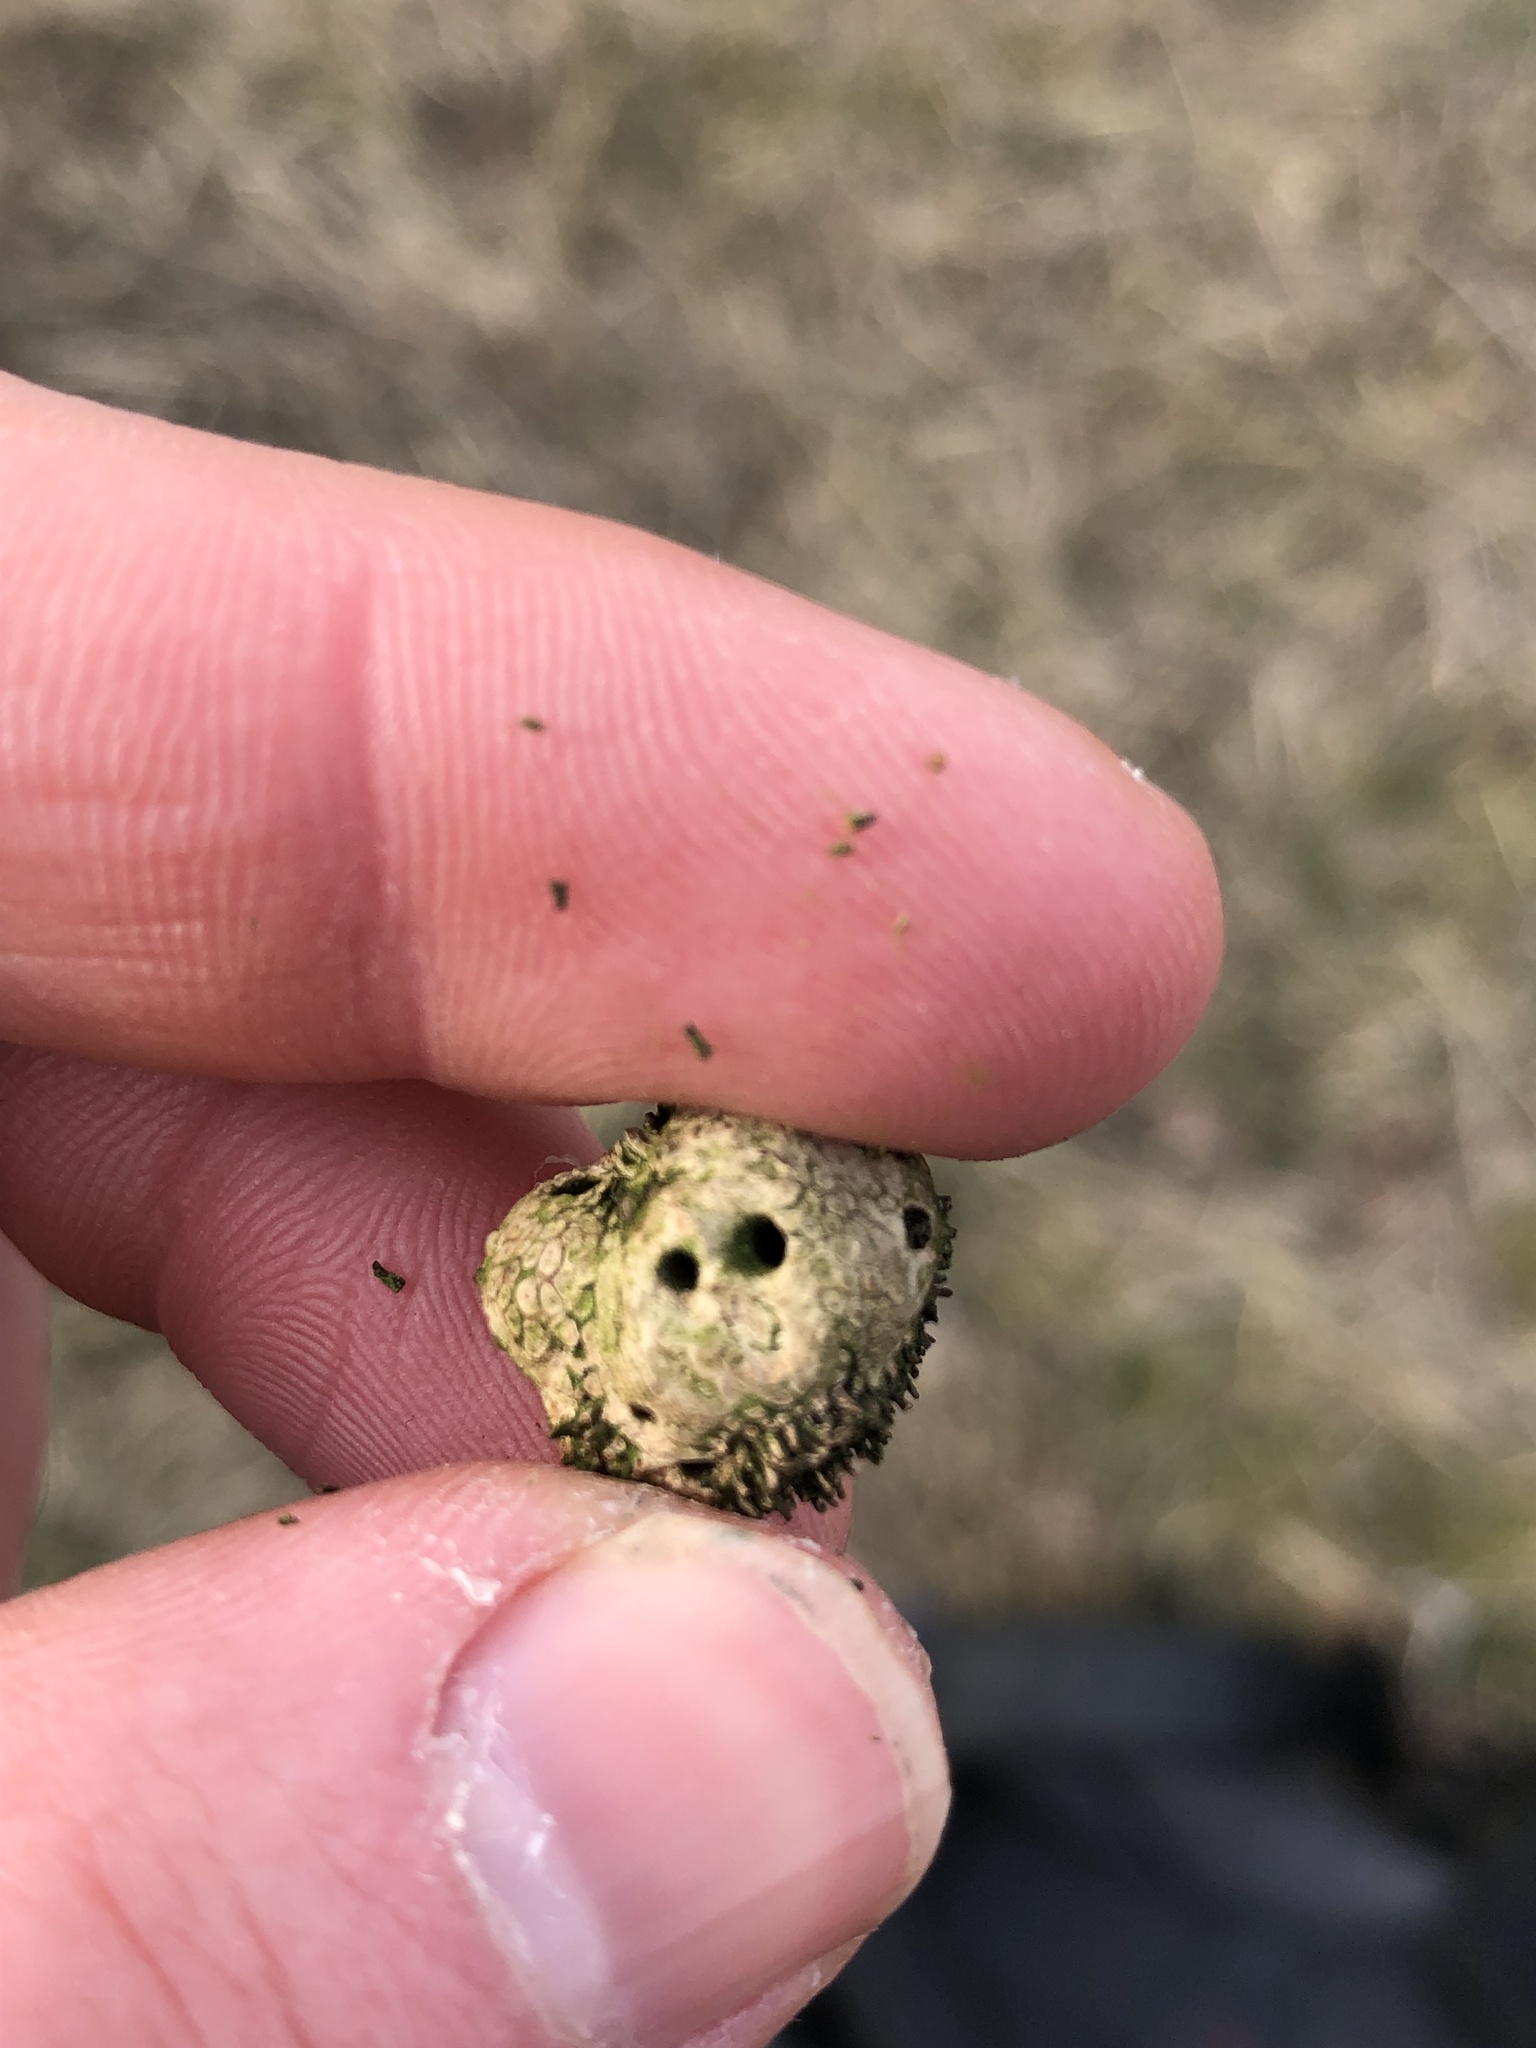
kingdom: Animalia
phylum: Arthropoda
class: Insecta
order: Hymenoptera
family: Cynipidae
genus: Andricus
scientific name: Andricus lucidus
